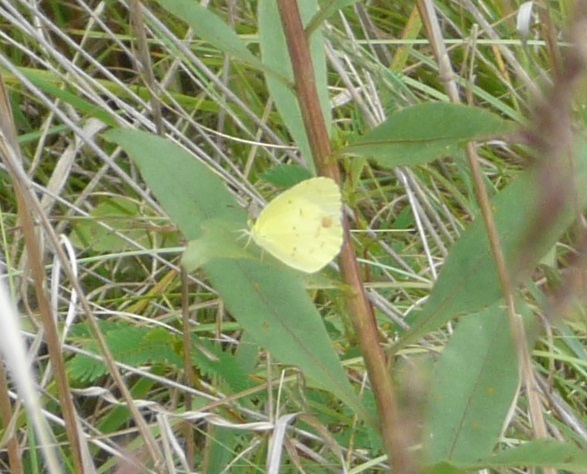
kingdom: Animalia
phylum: Arthropoda
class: Insecta
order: Lepidoptera
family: Pieridae
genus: Pyrisitia
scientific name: Pyrisitia lisa
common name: Little yellow
